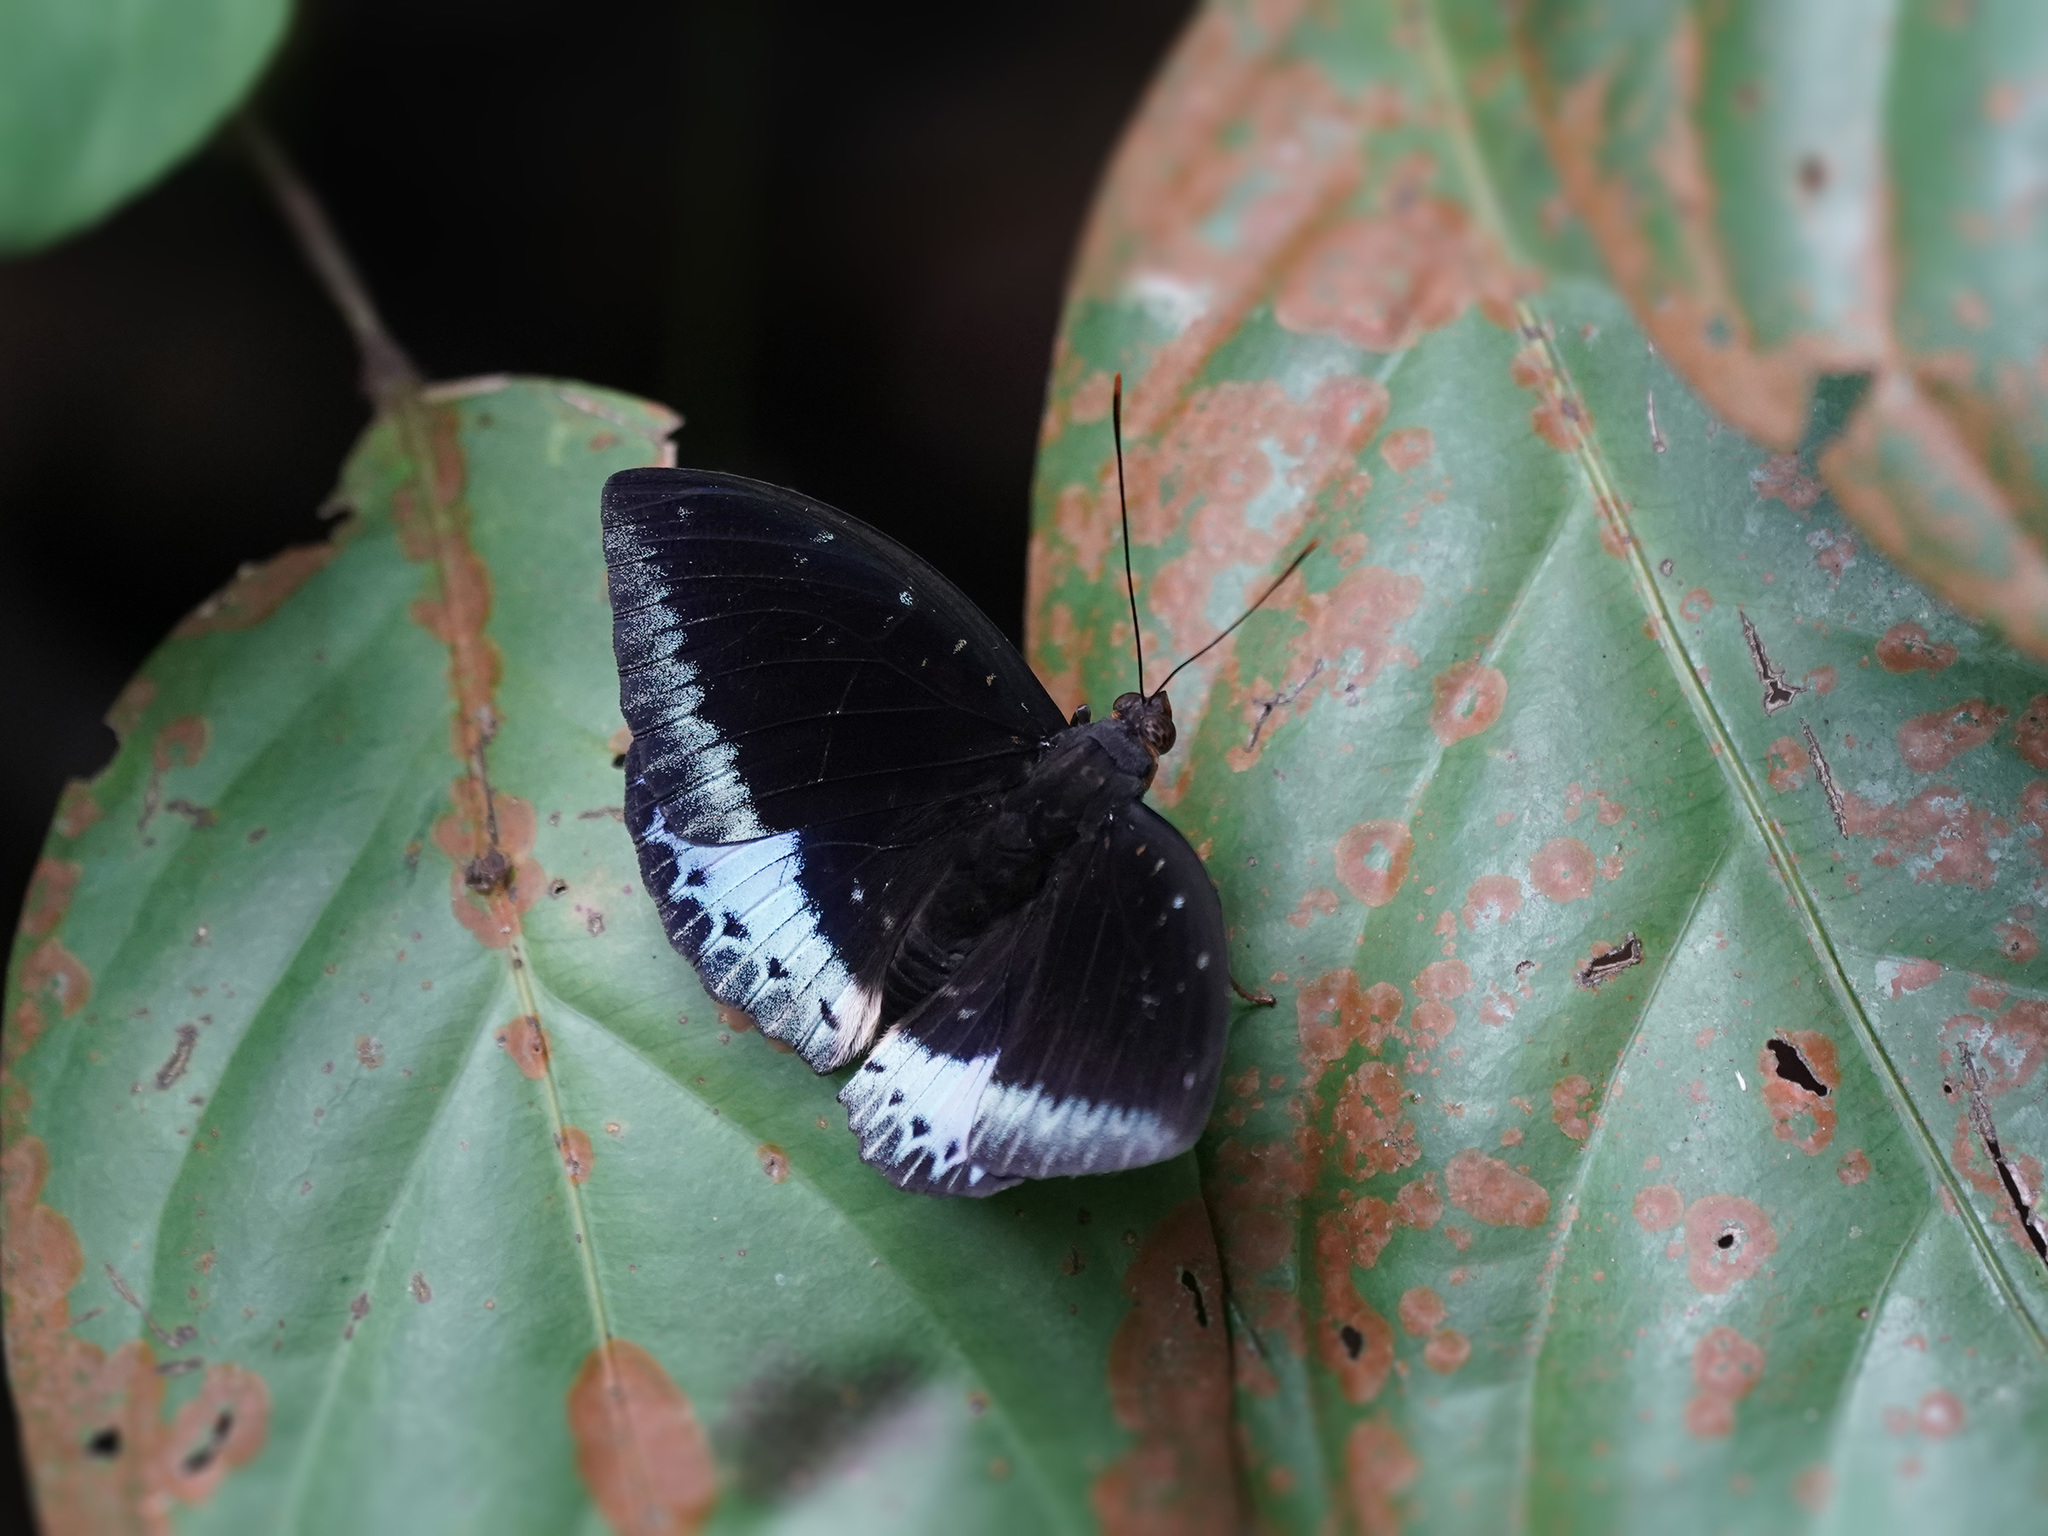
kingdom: Animalia
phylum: Arthropoda
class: Insecta
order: Lepidoptera
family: Nymphalidae
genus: Lexias
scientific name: Lexias pardalis
